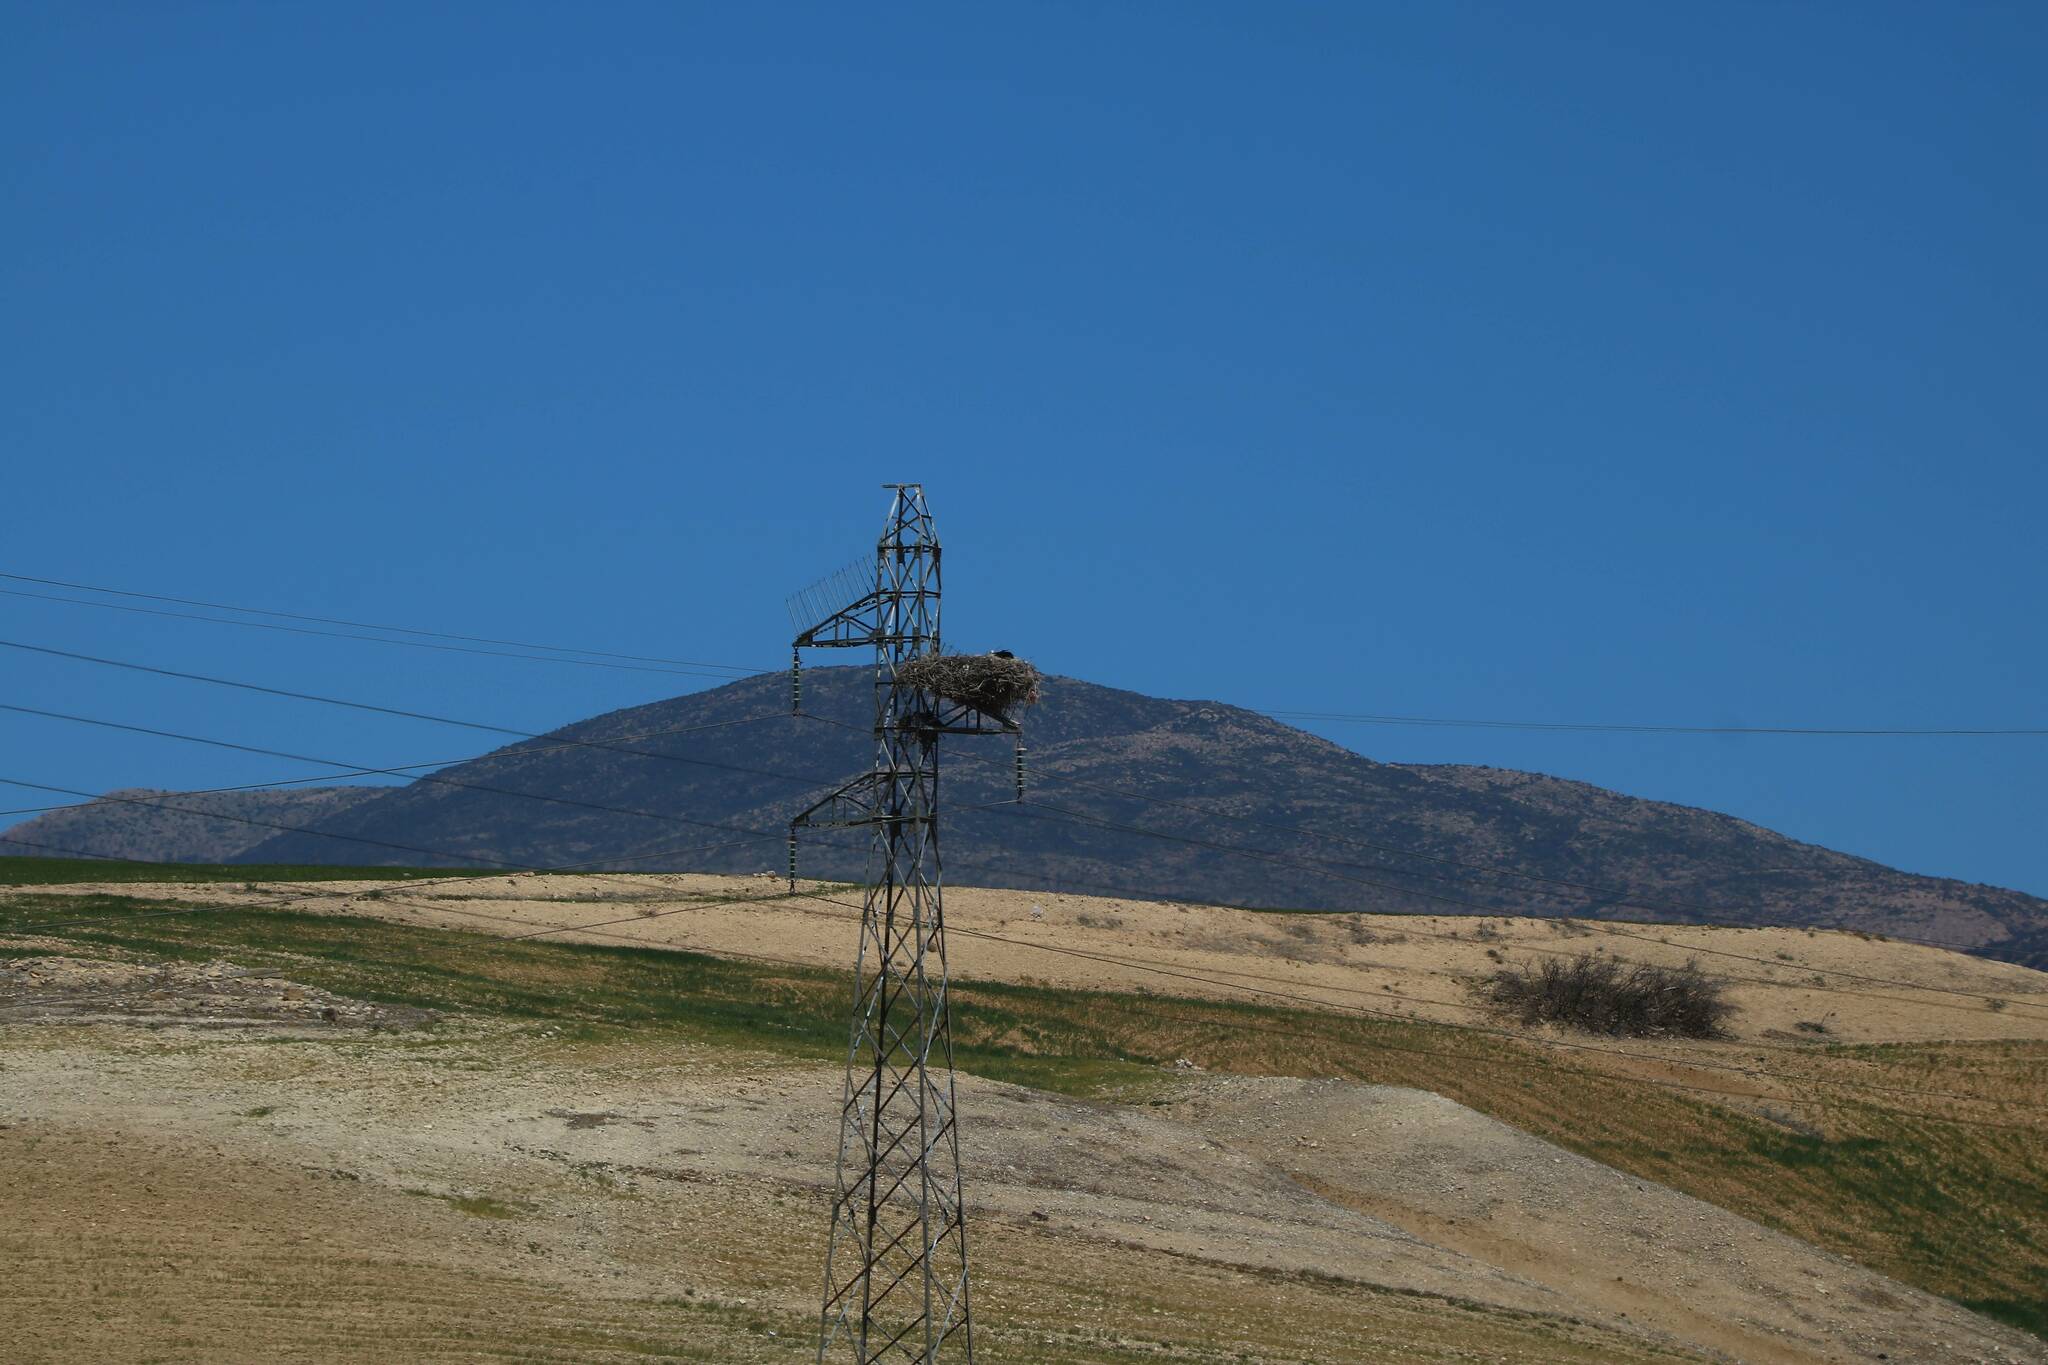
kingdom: Animalia
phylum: Chordata
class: Aves
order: Ciconiiformes
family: Ciconiidae
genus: Ciconia
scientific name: Ciconia ciconia
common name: White stork
